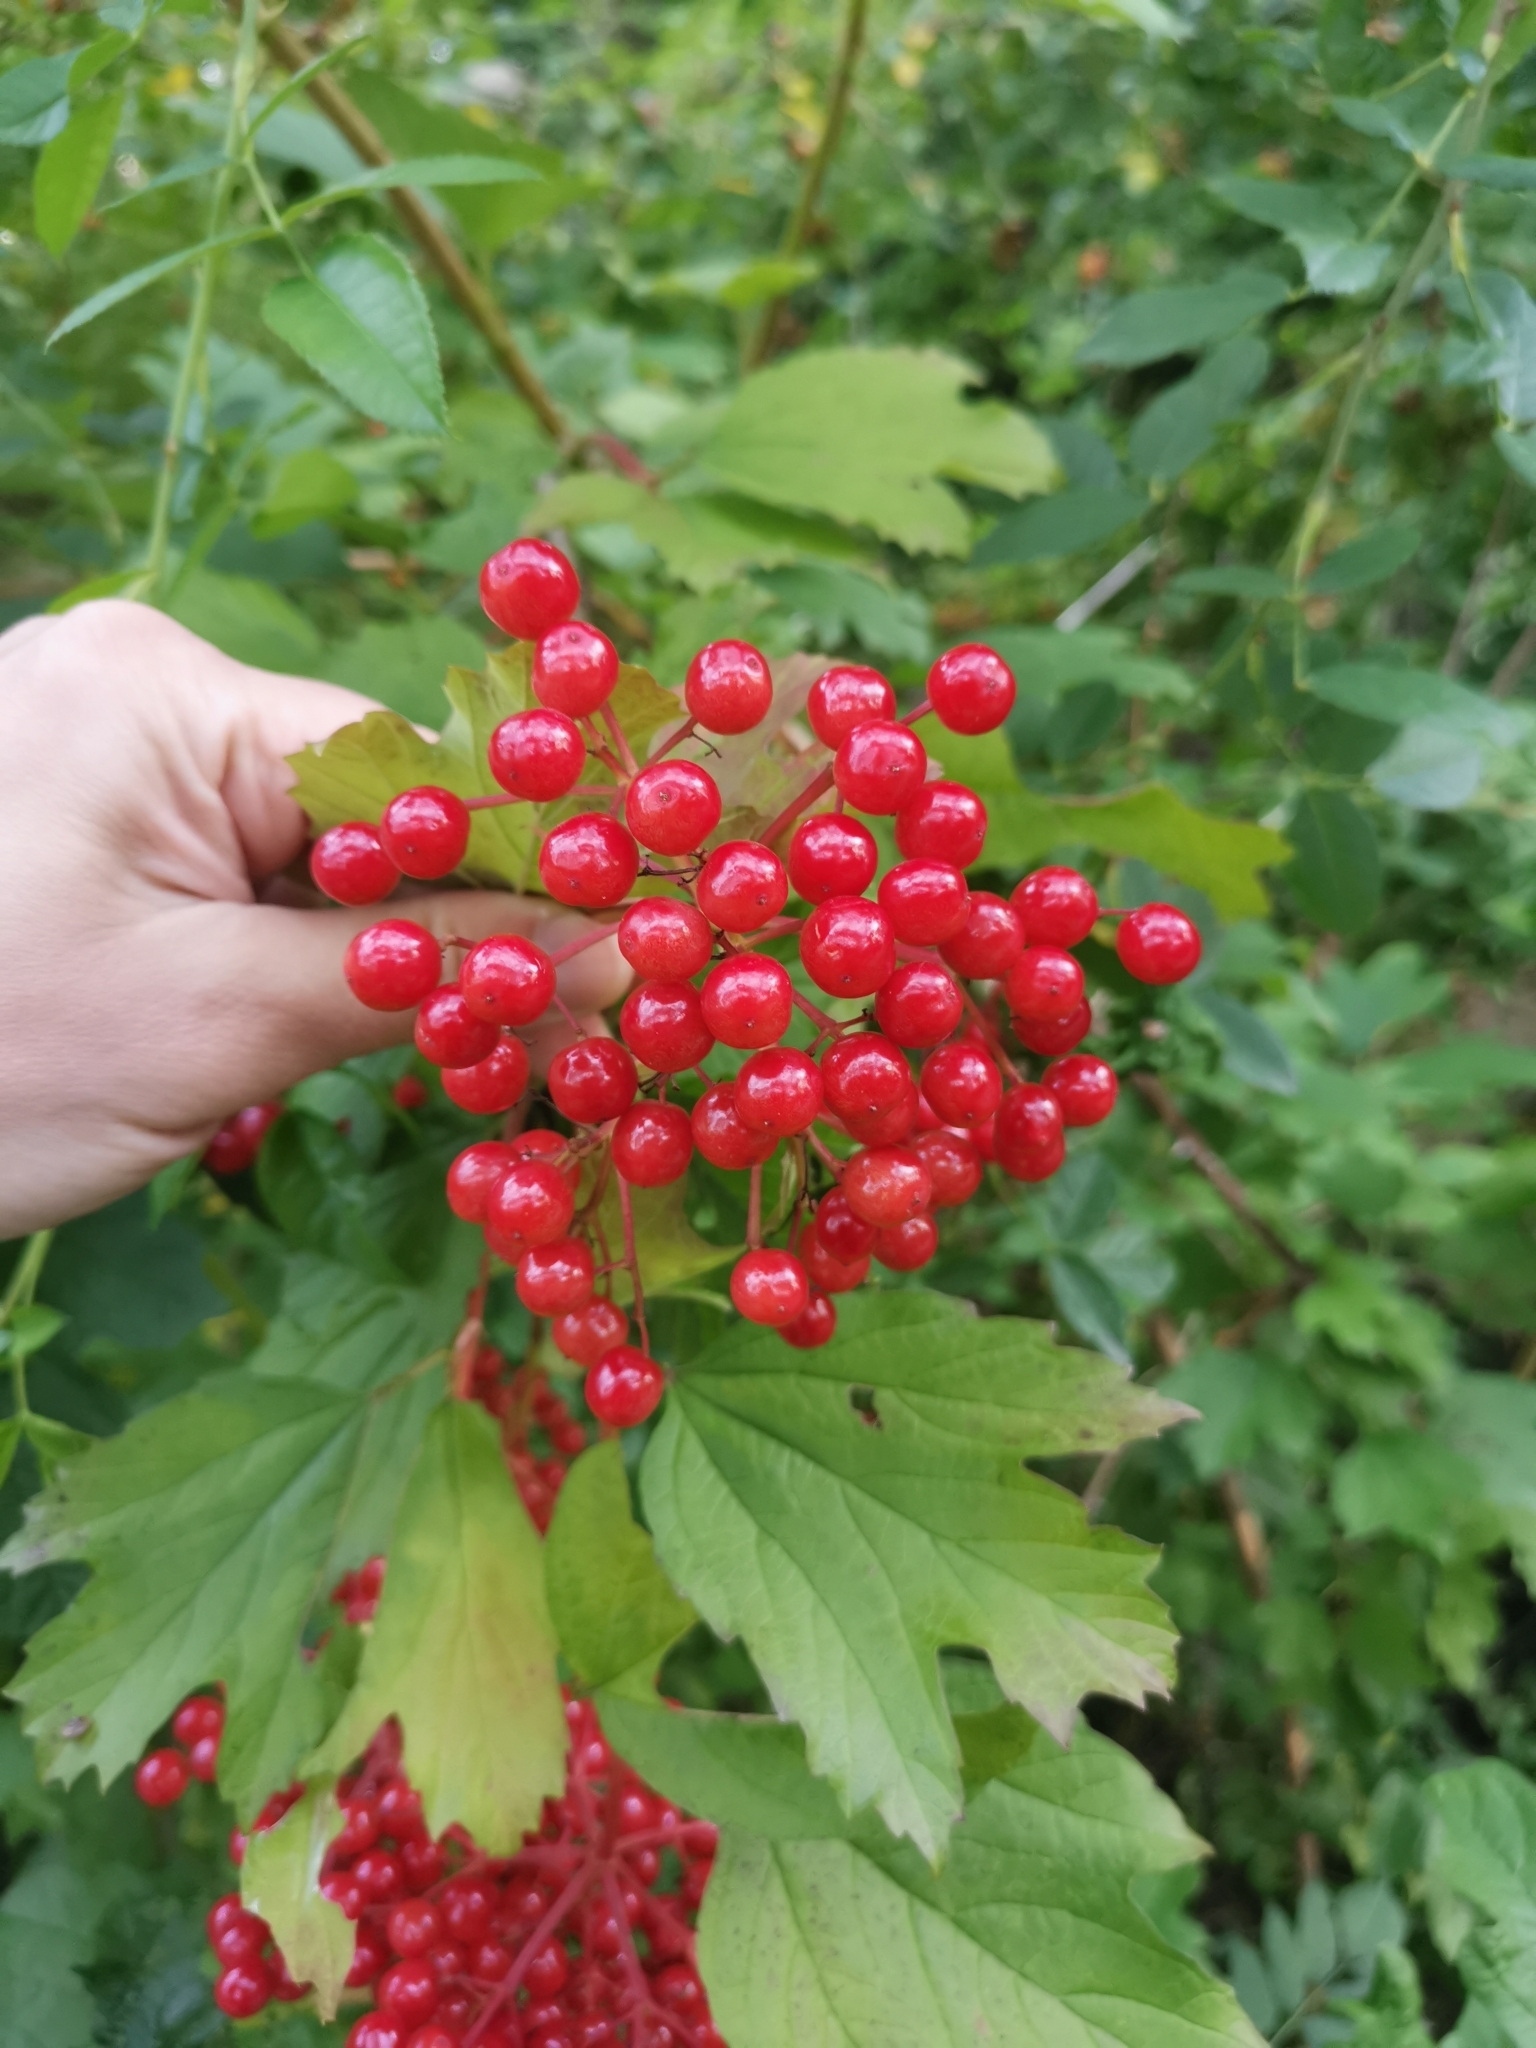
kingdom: Plantae
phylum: Tracheophyta
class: Magnoliopsida
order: Dipsacales
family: Viburnaceae
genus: Viburnum
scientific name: Viburnum opulus
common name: Guelder-rose
